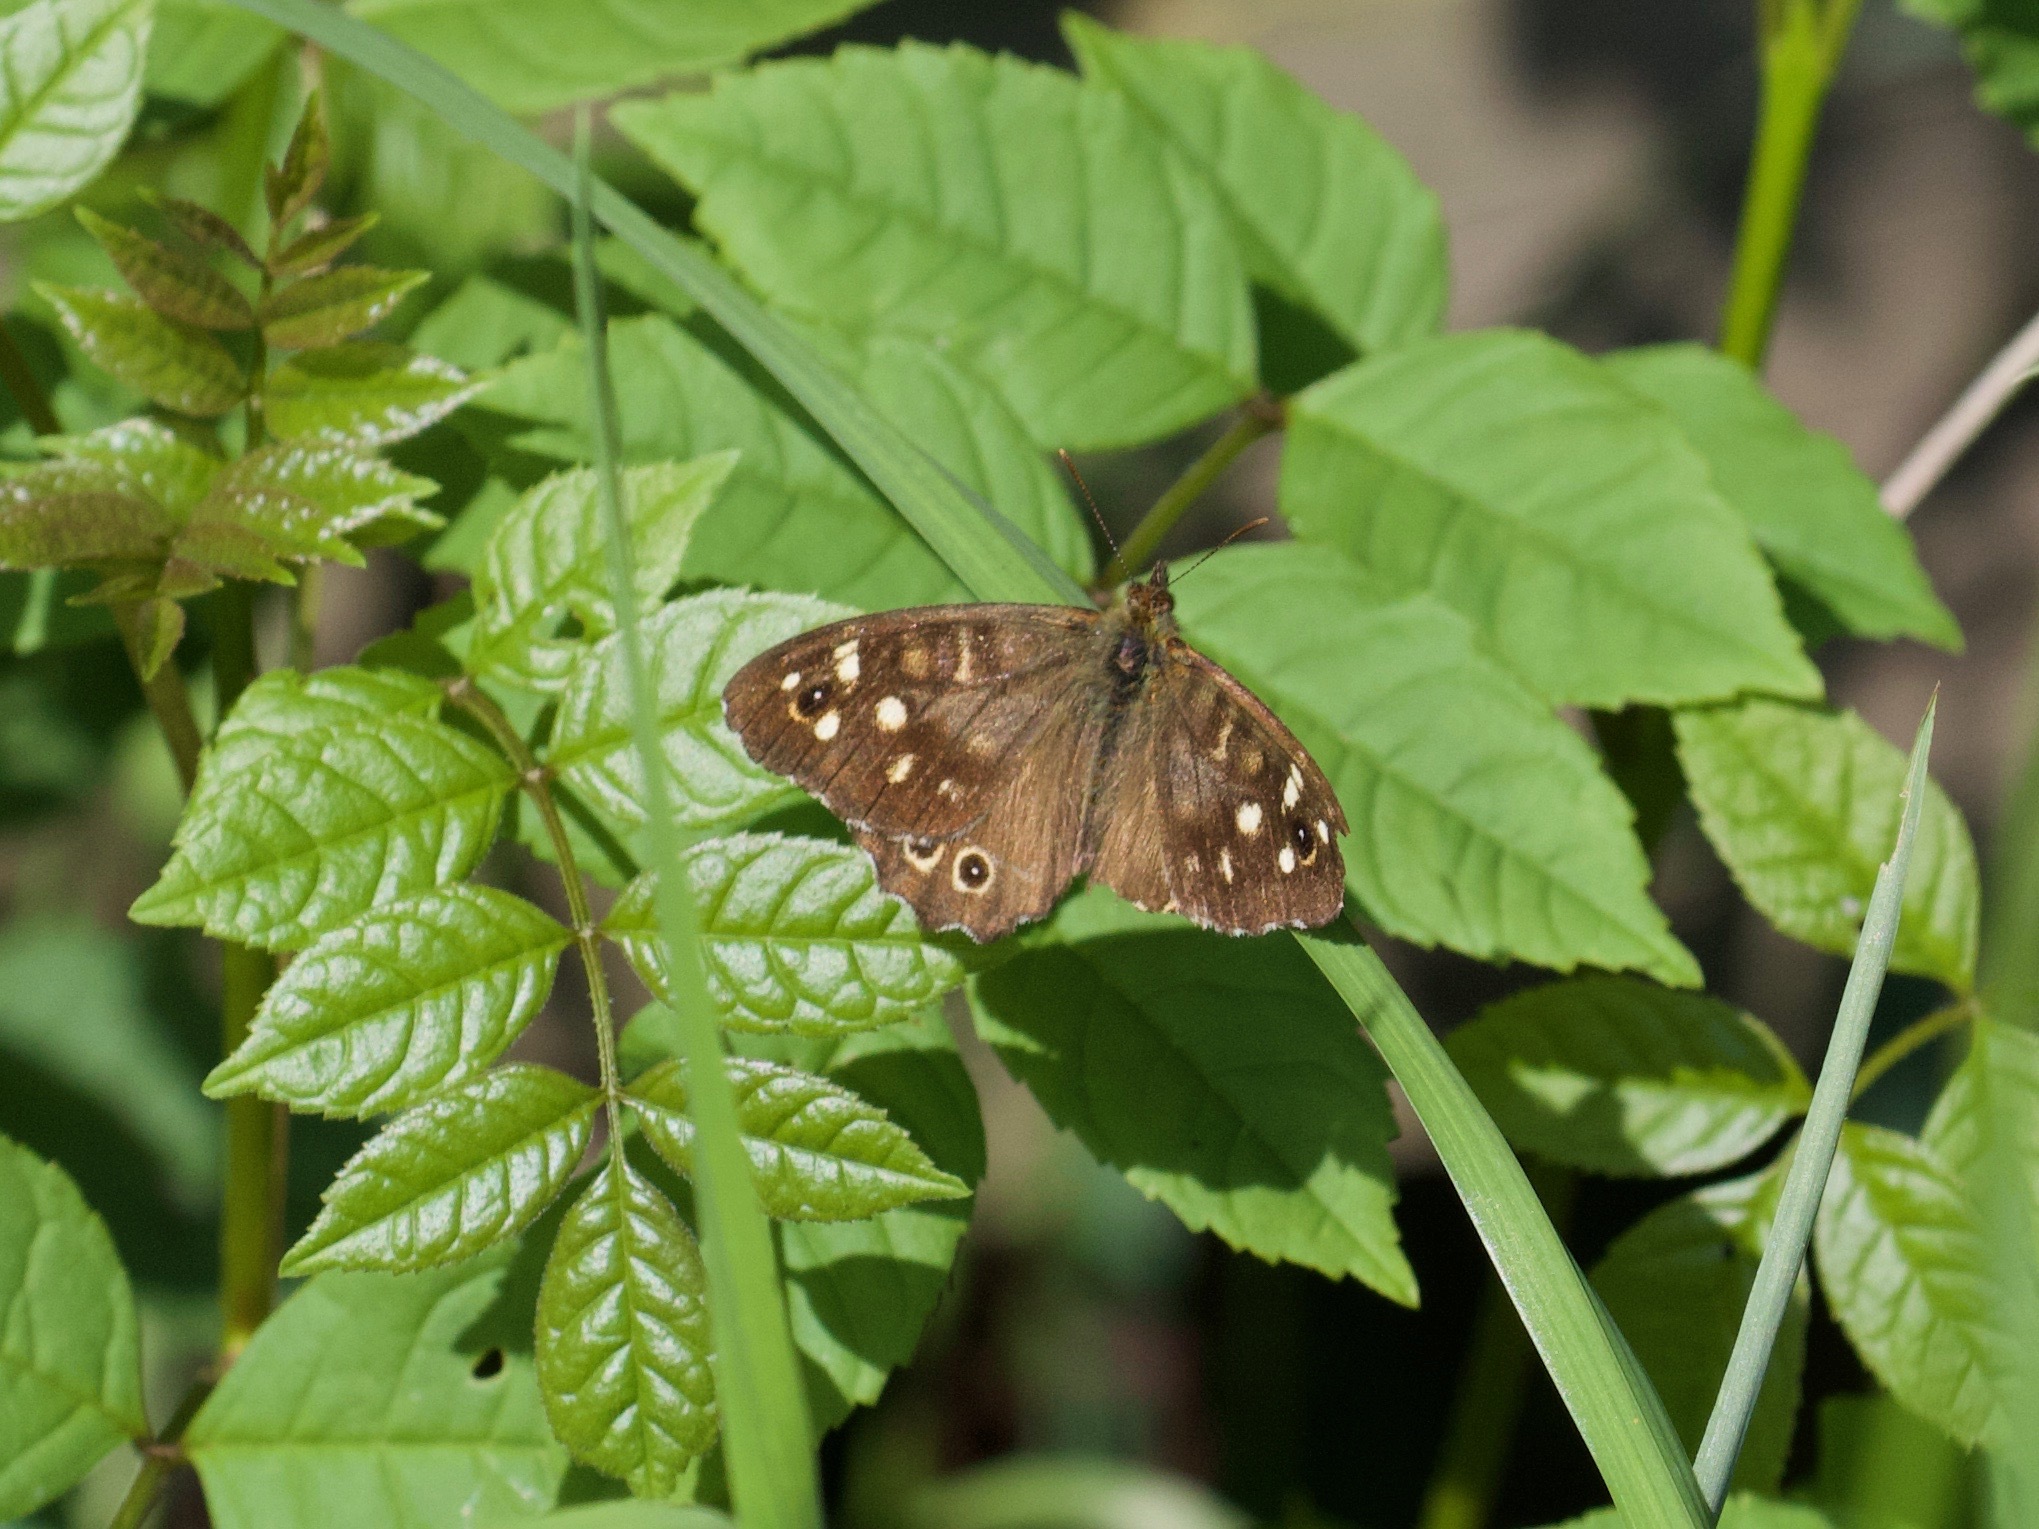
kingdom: Animalia
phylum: Arthropoda
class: Insecta
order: Lepidoptera
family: Nymphalidae
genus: Pararge
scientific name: Pararge aegeria
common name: Speckled wood
